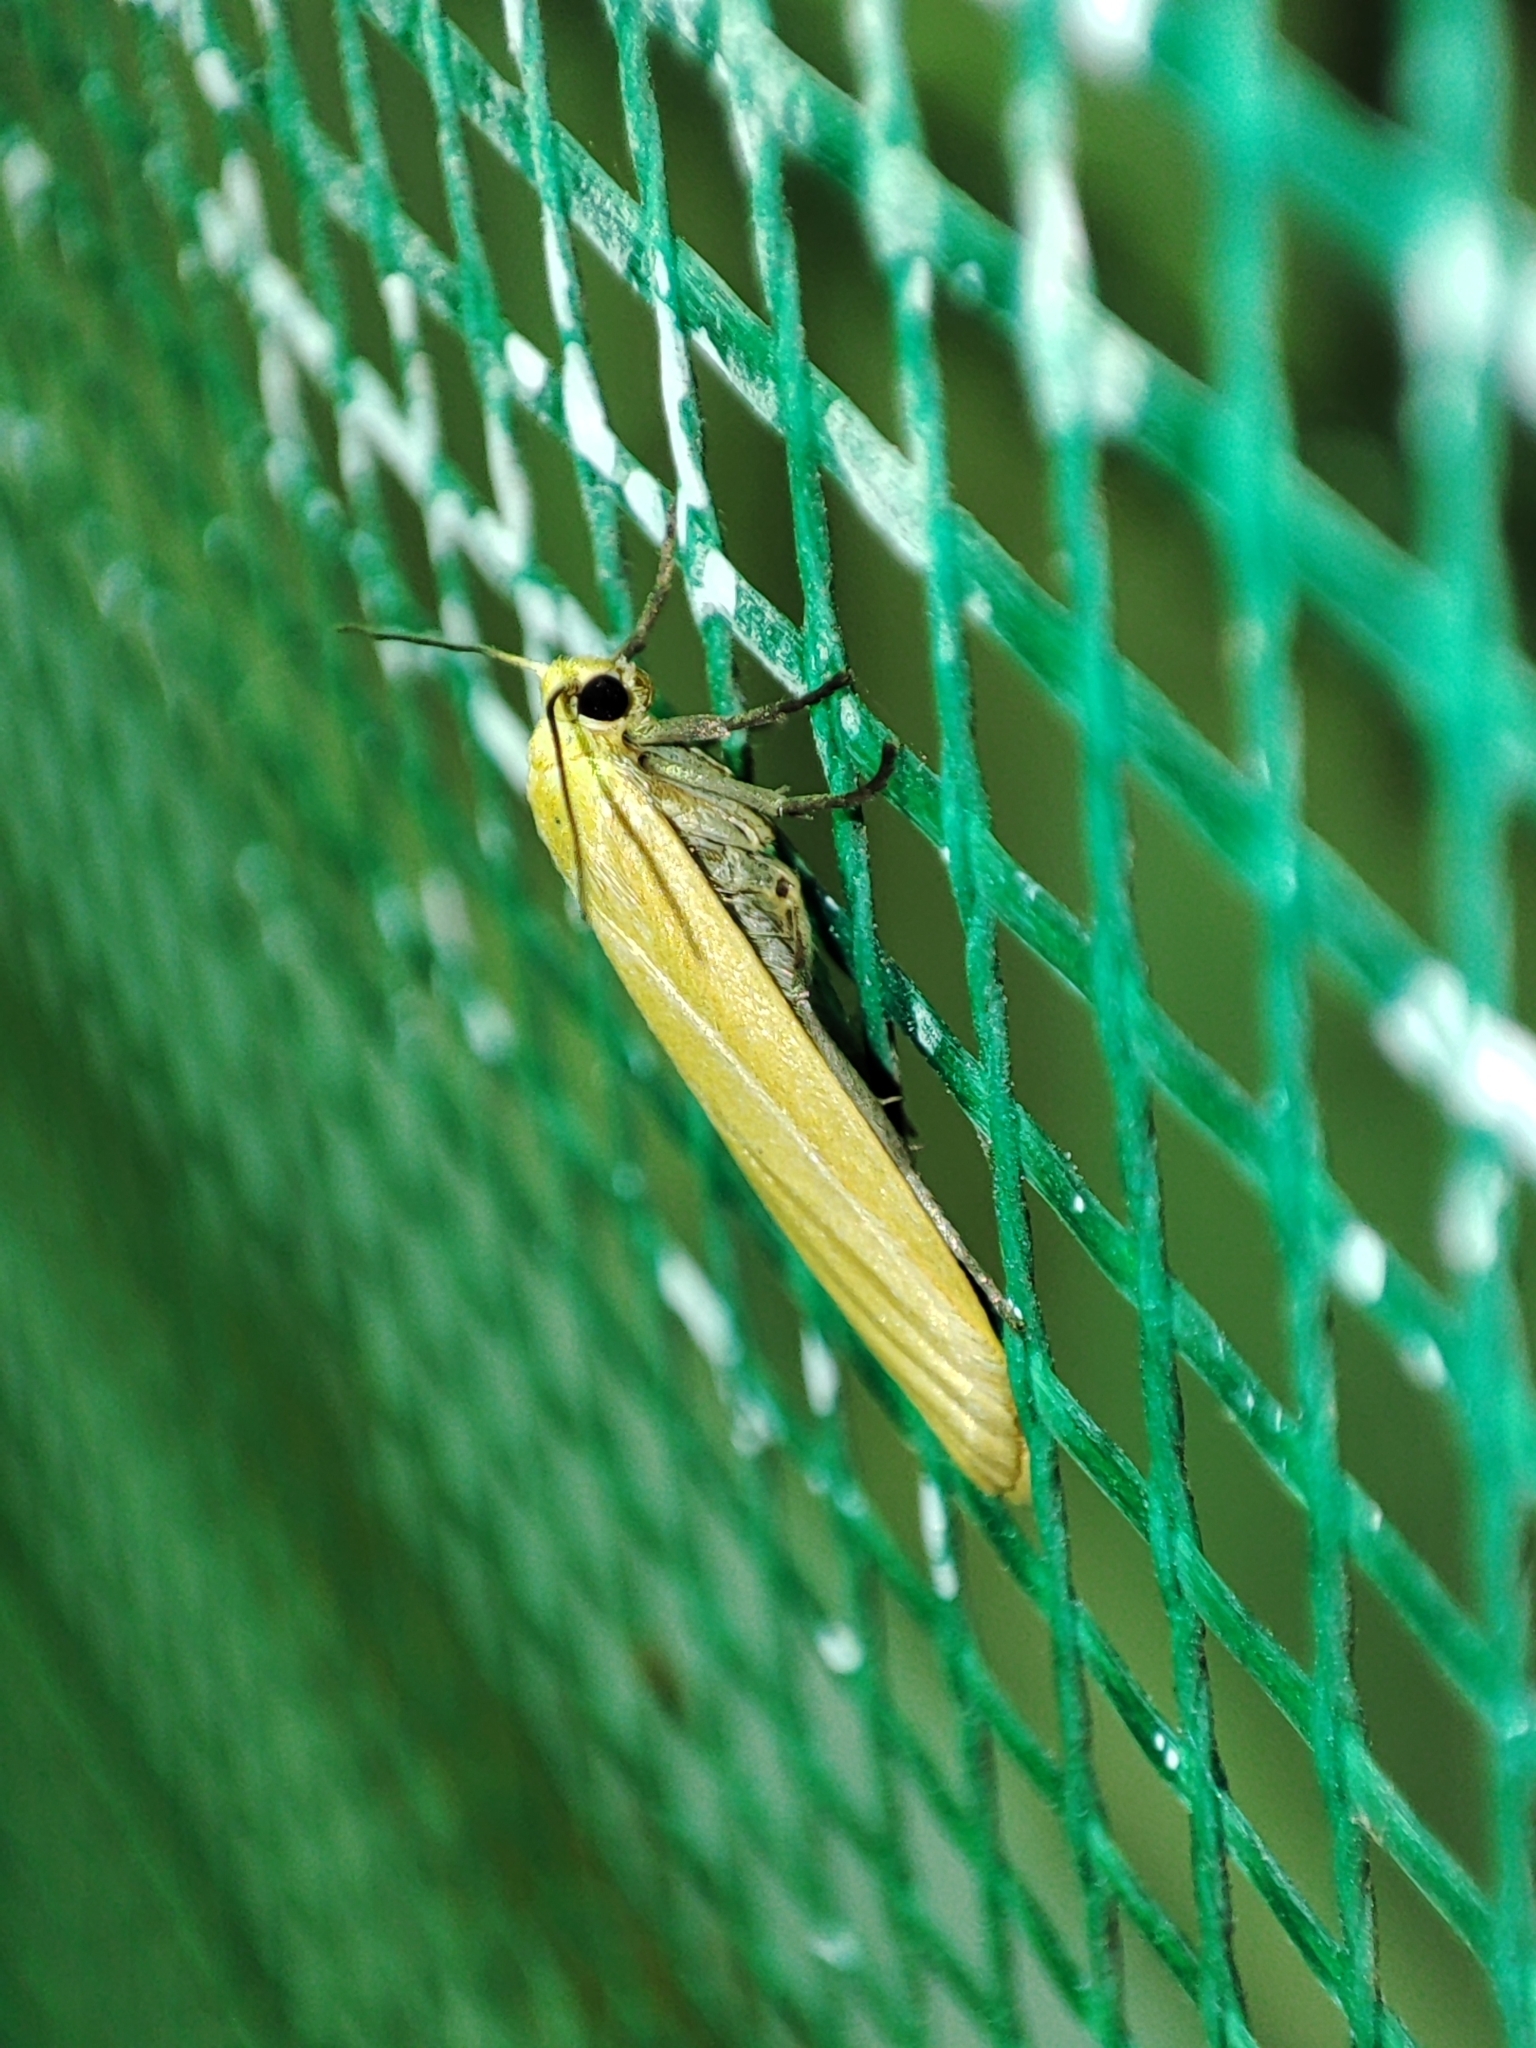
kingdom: Animalia
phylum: Arthropoda
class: Insecta
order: Lepidoptera
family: Erebidae
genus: Wittia
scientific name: Wittia sororcula
